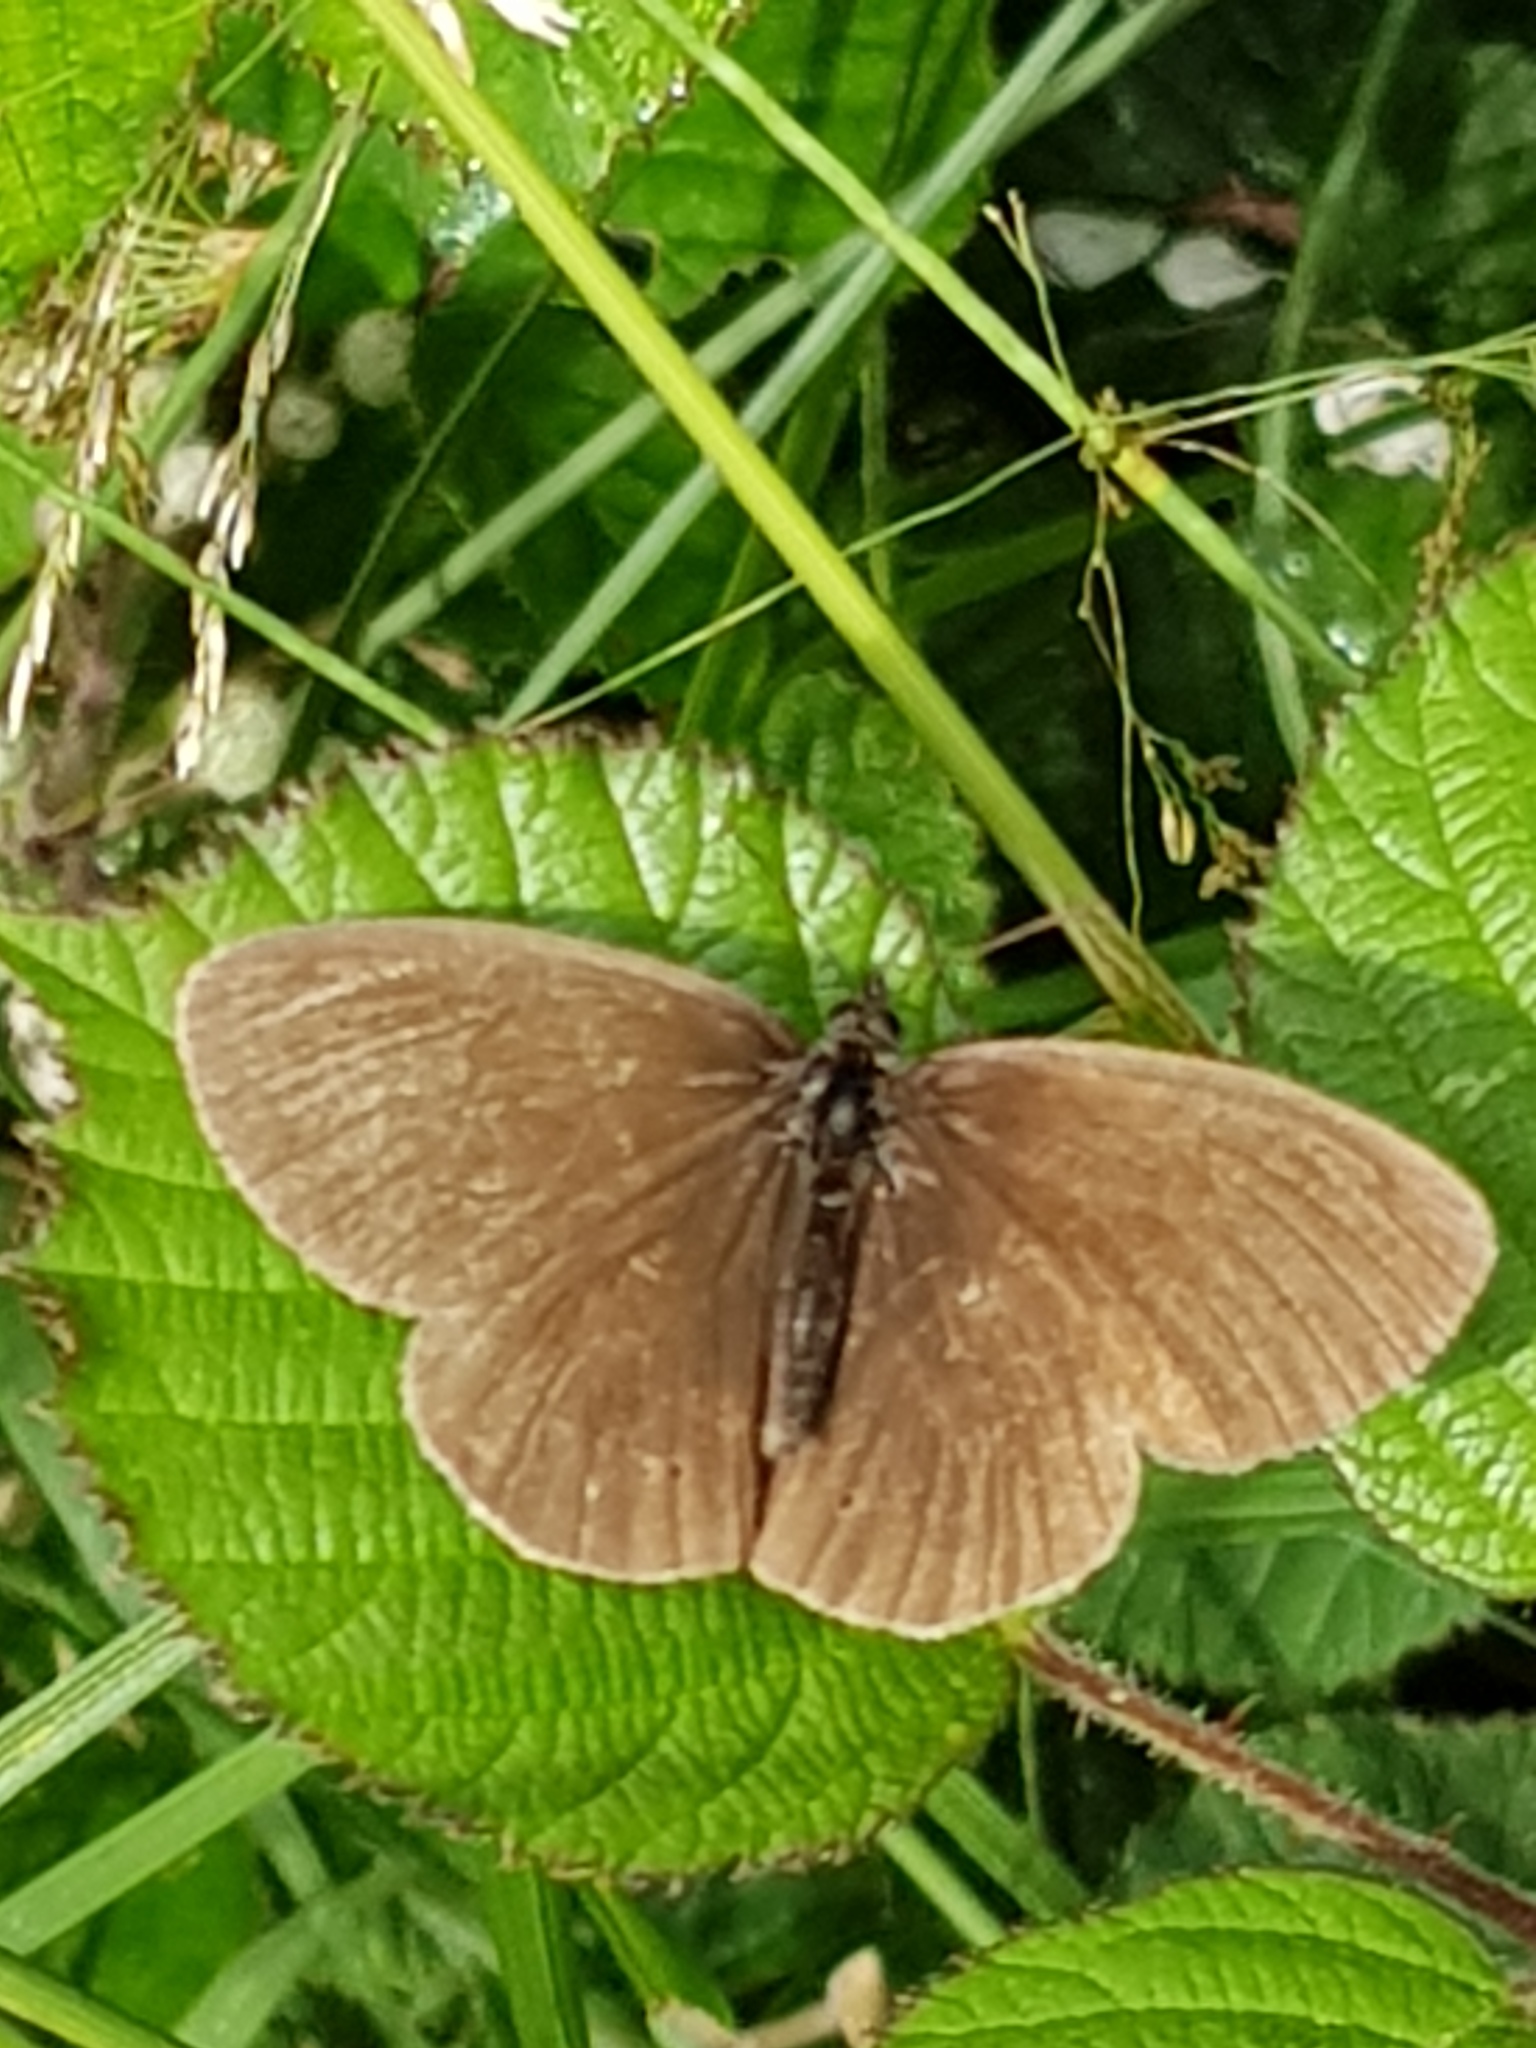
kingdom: Animalia
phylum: Arthropoda
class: Insecta
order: Lepidoptera
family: Nymphalidae
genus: Aphantopus
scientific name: Aphantopus hyperantus
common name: Ringlet
